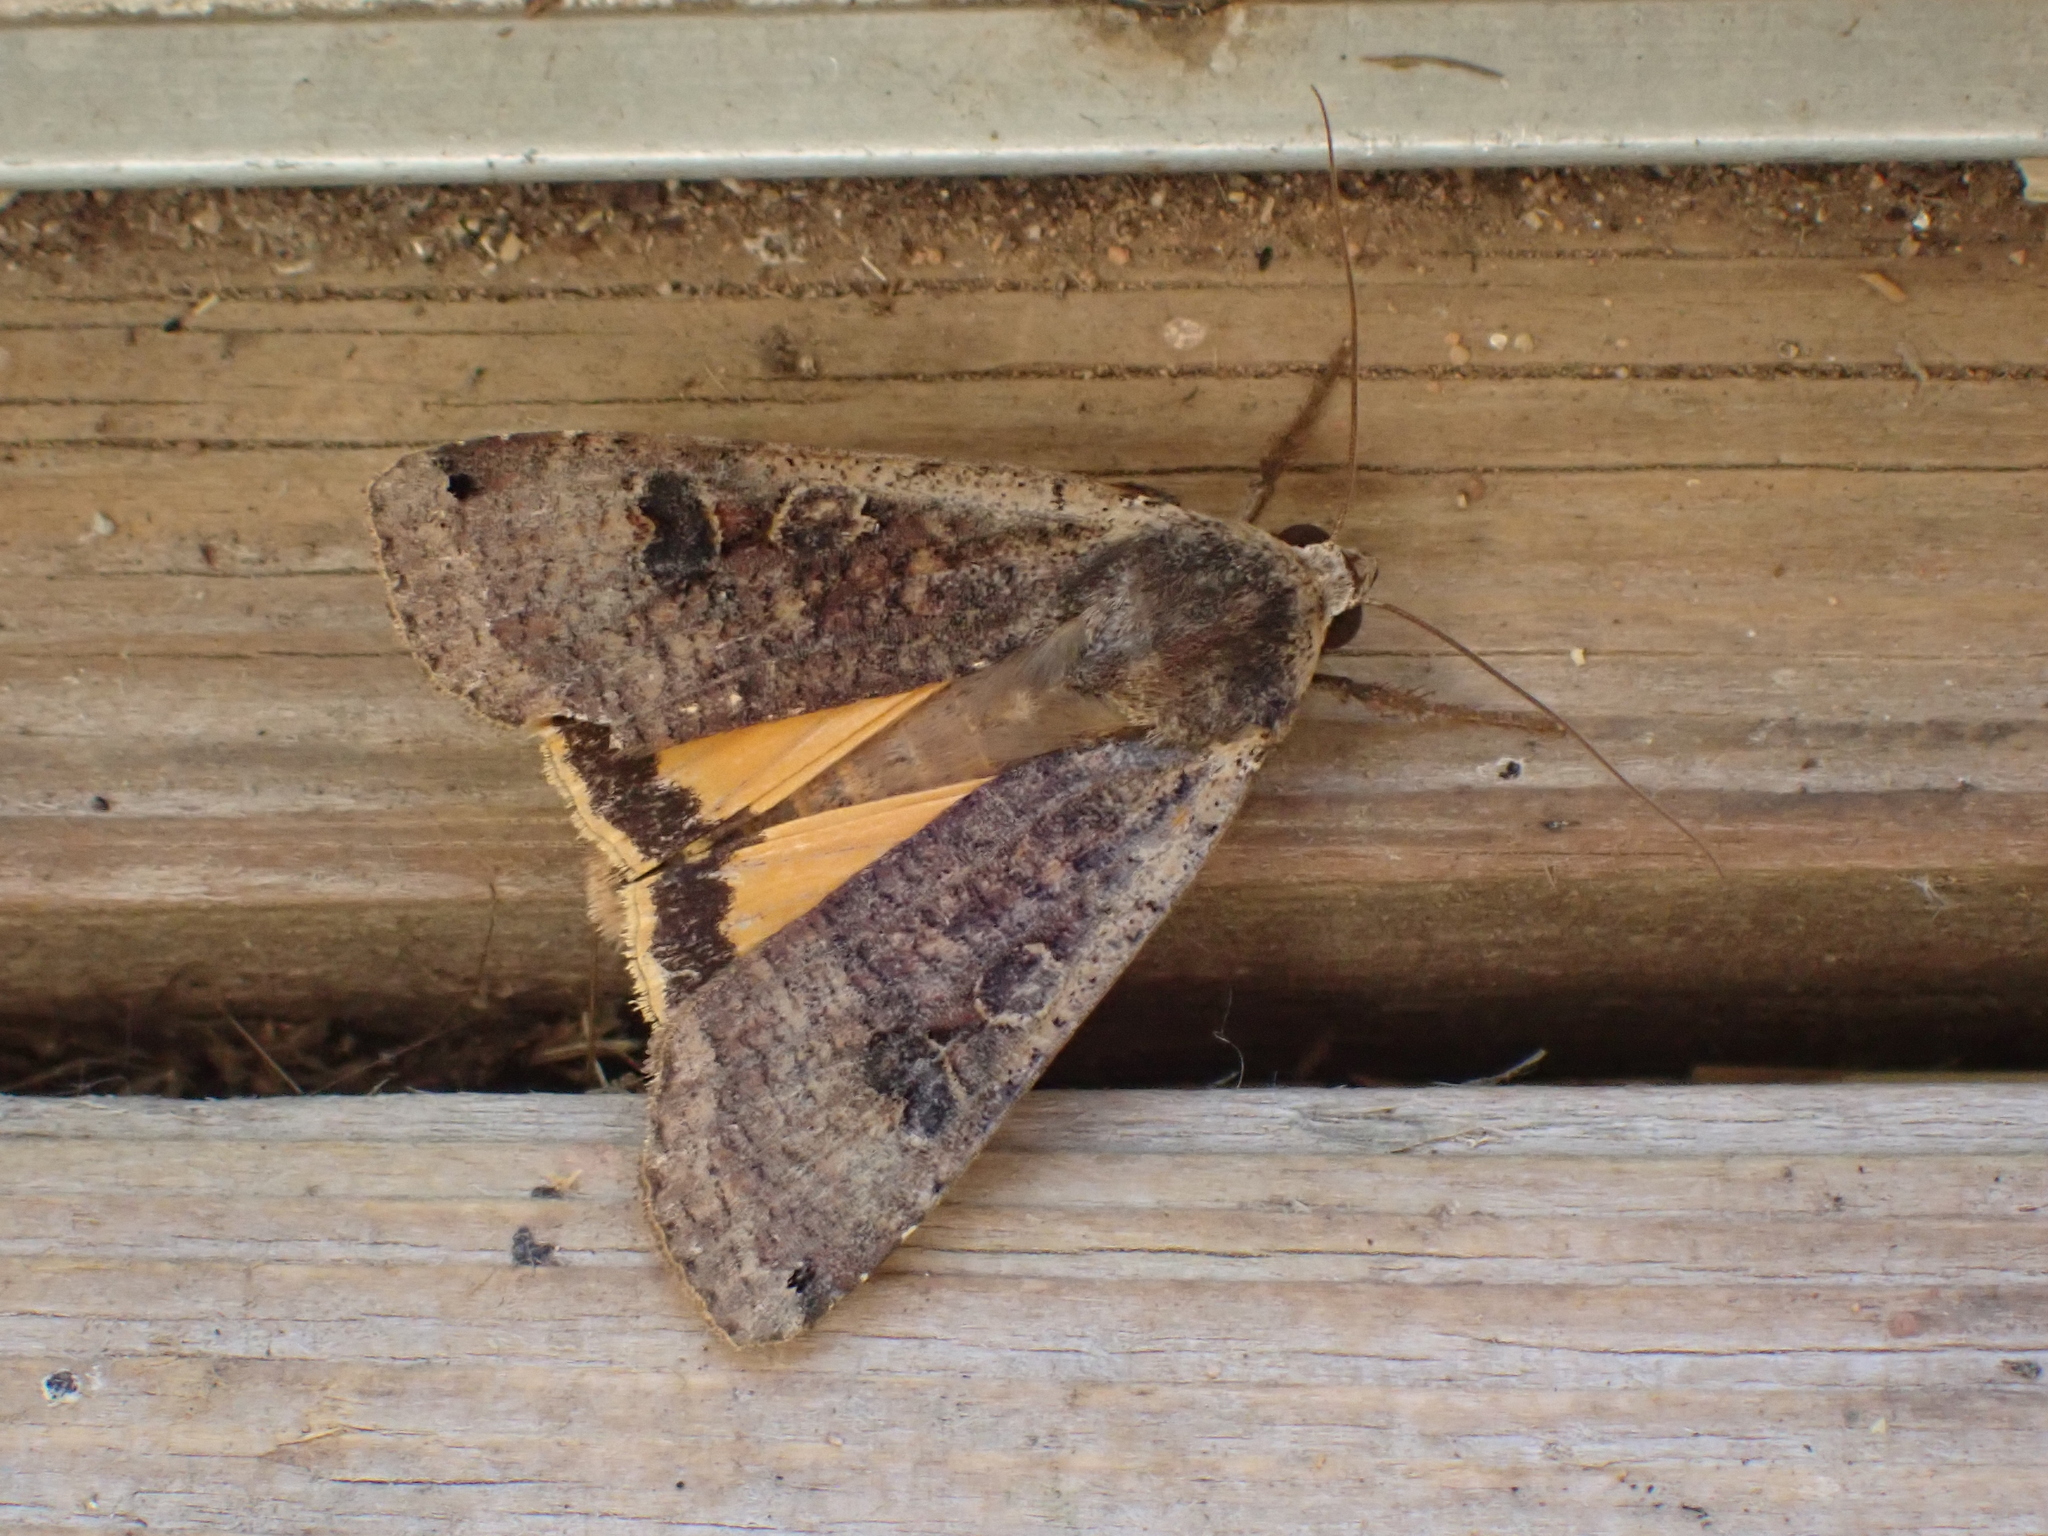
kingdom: Animalia
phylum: Arthropoda
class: Insecta
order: Lepidoptera
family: Noctuidae
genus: Noctua
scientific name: Noctua pronuba
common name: Large yellow underwing
